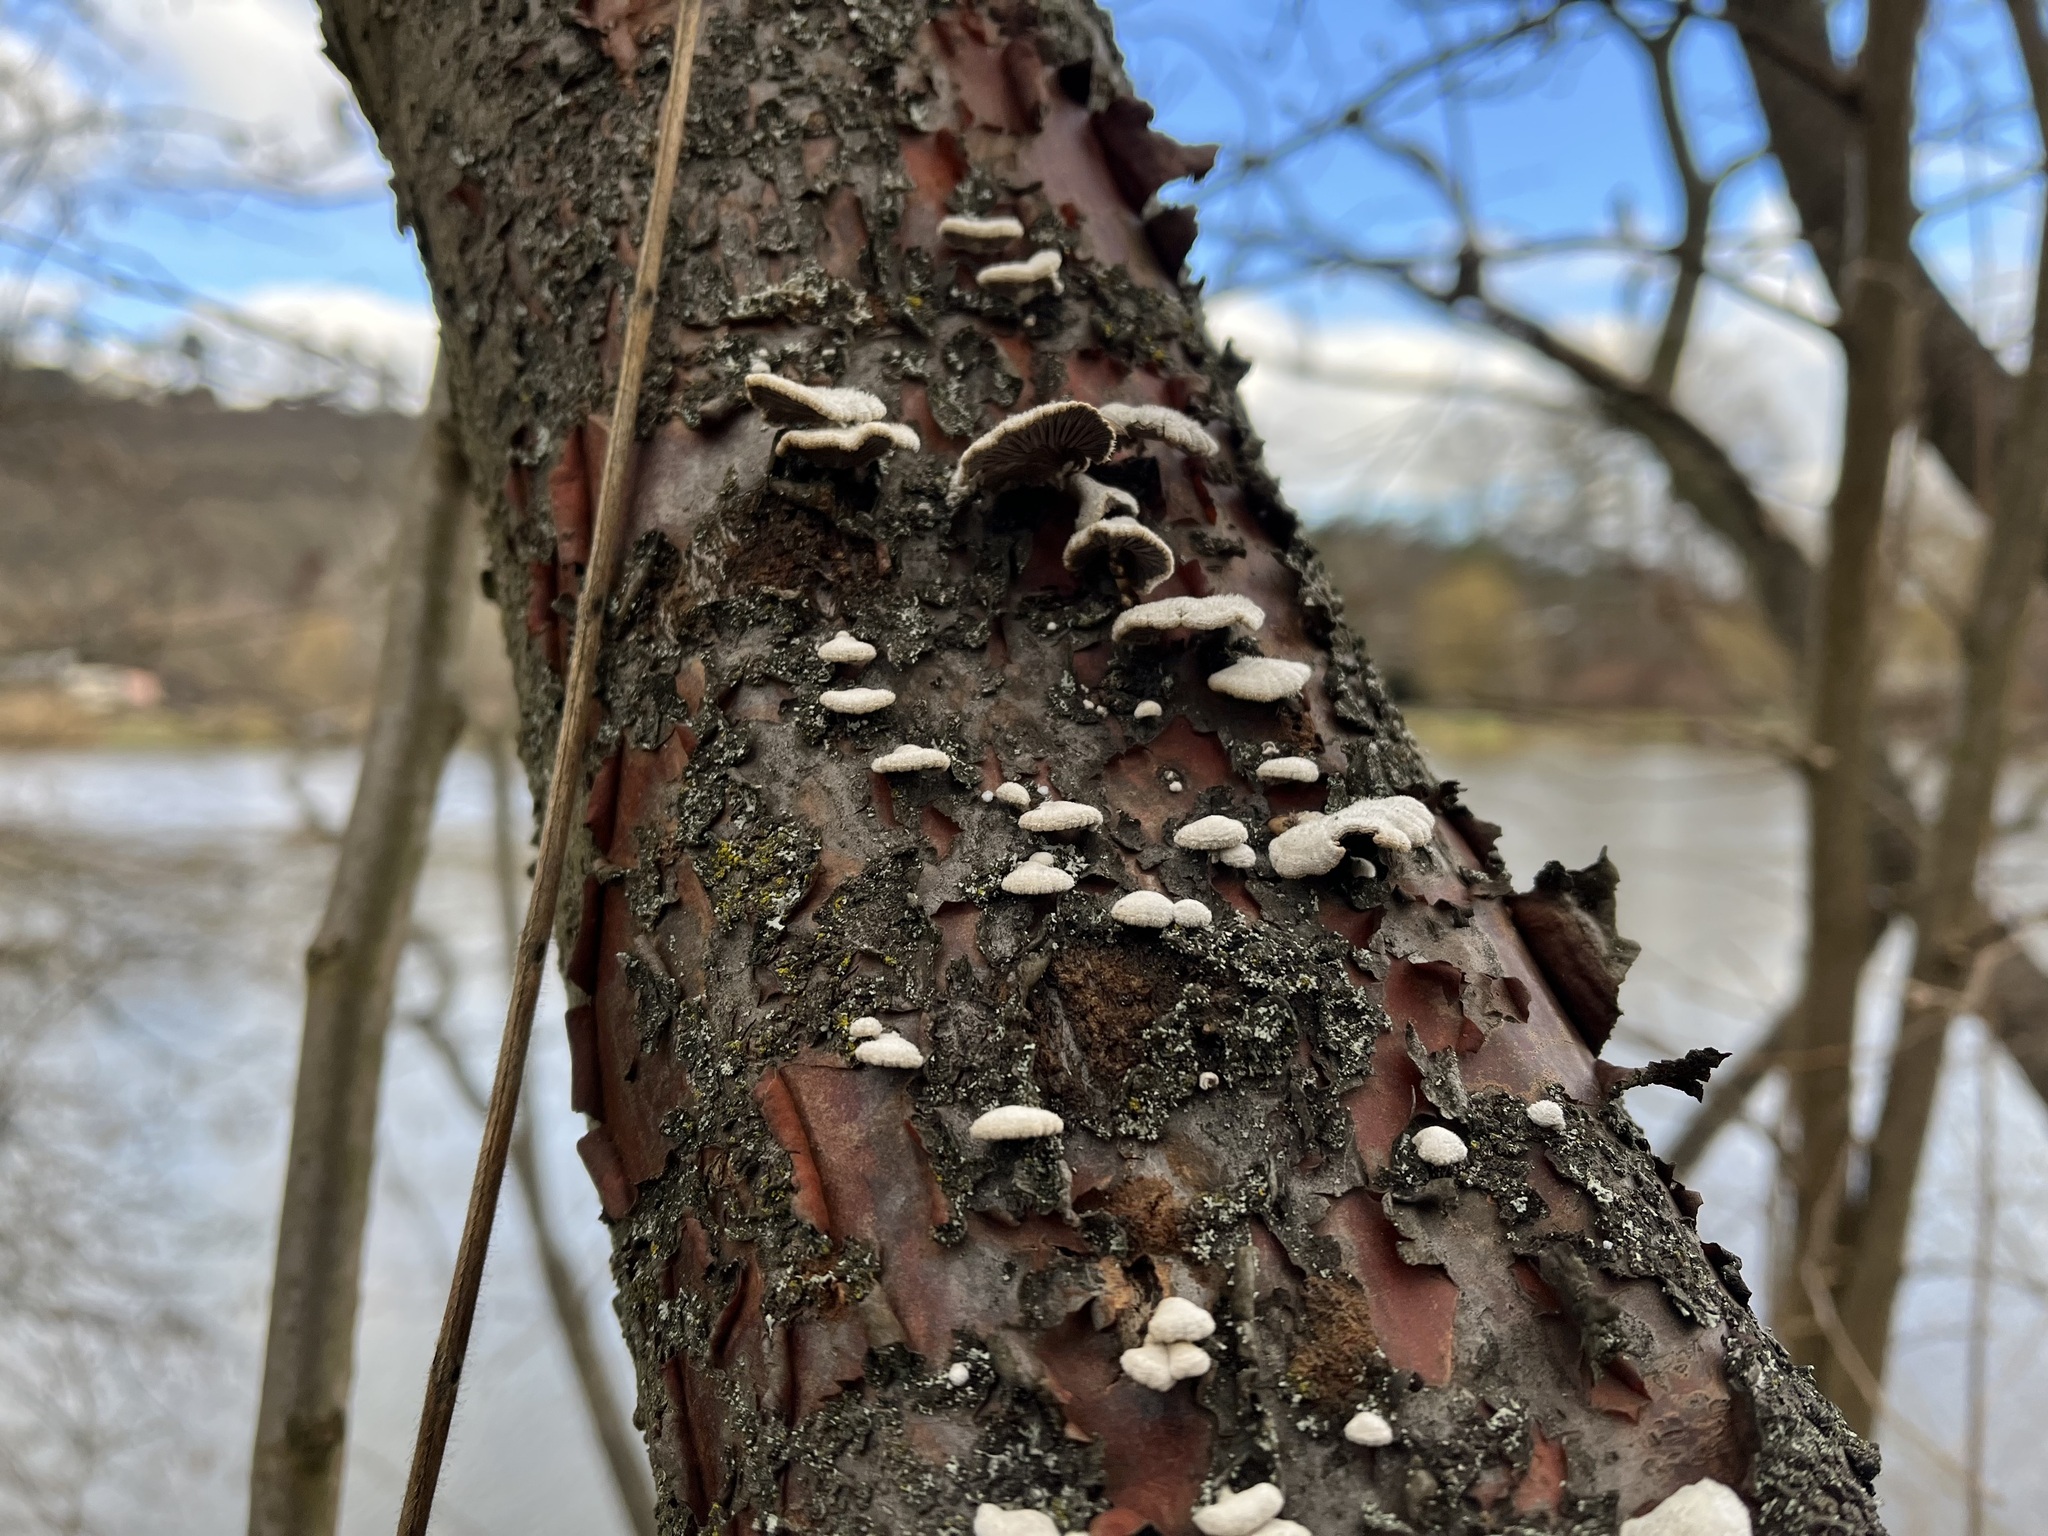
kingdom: Fungi
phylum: Basidiomycota
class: Agaricomycetes
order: Agaricales
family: Schizophyllaceae
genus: Schizophyllum
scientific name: Schizophyllum commune
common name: Common porecrust
